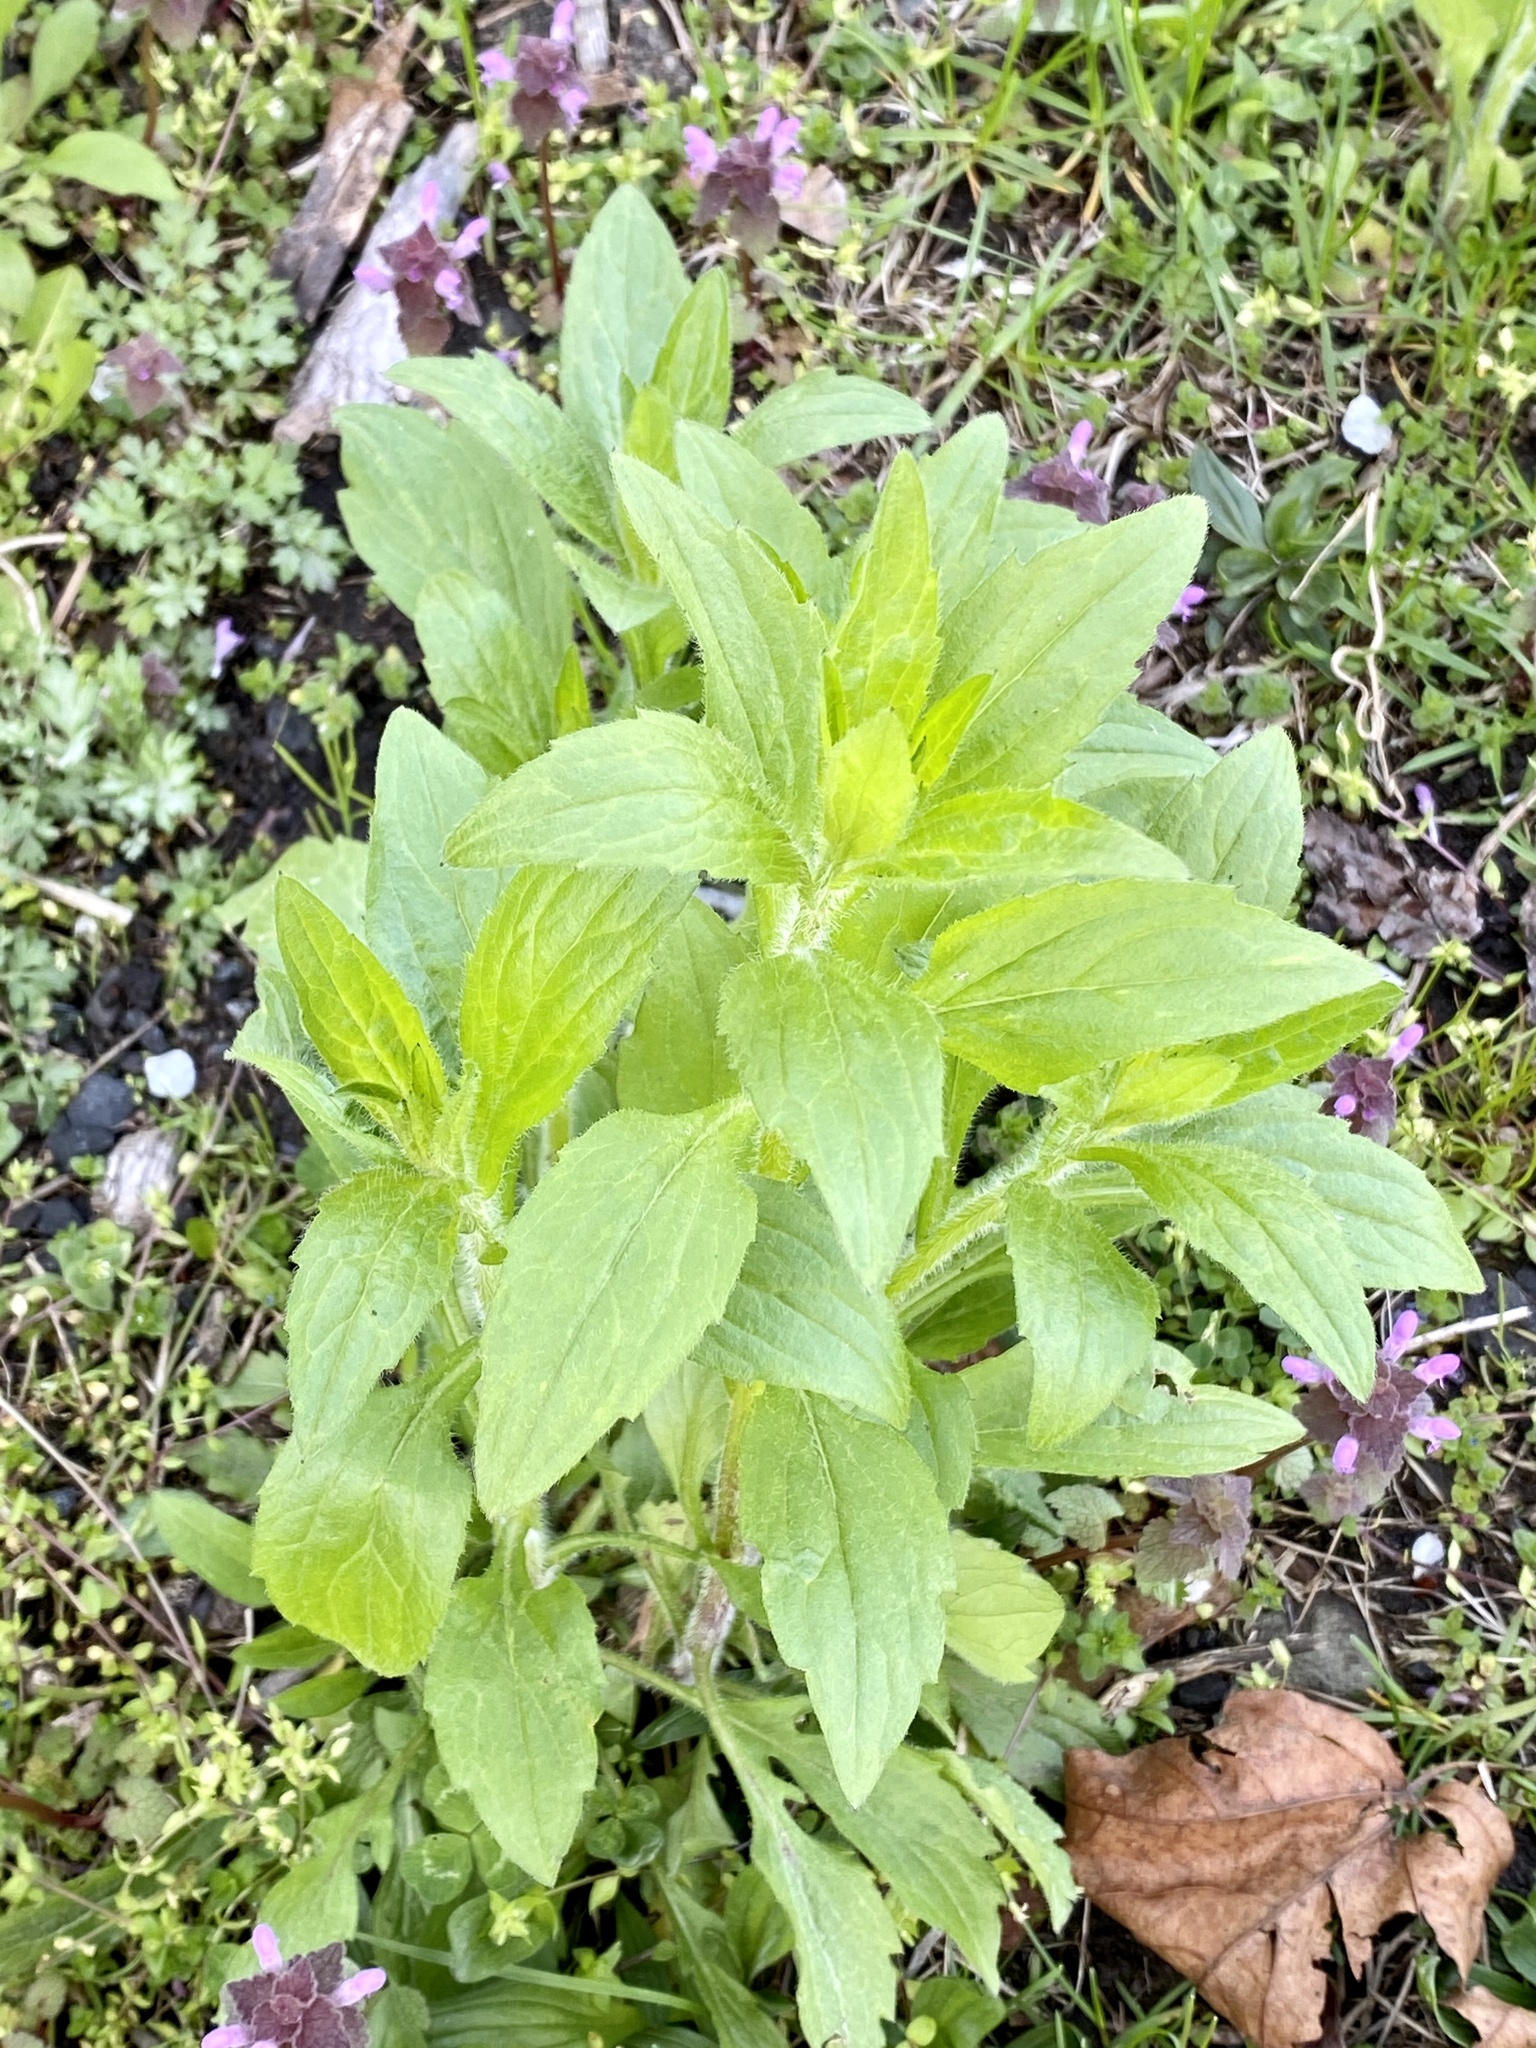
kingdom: Plantae
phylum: Tracheophyta
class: Magnoliopsida
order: Asterales
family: Asteraceae
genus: Erigeron
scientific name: Erigeron annuus
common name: Tall fleabane
